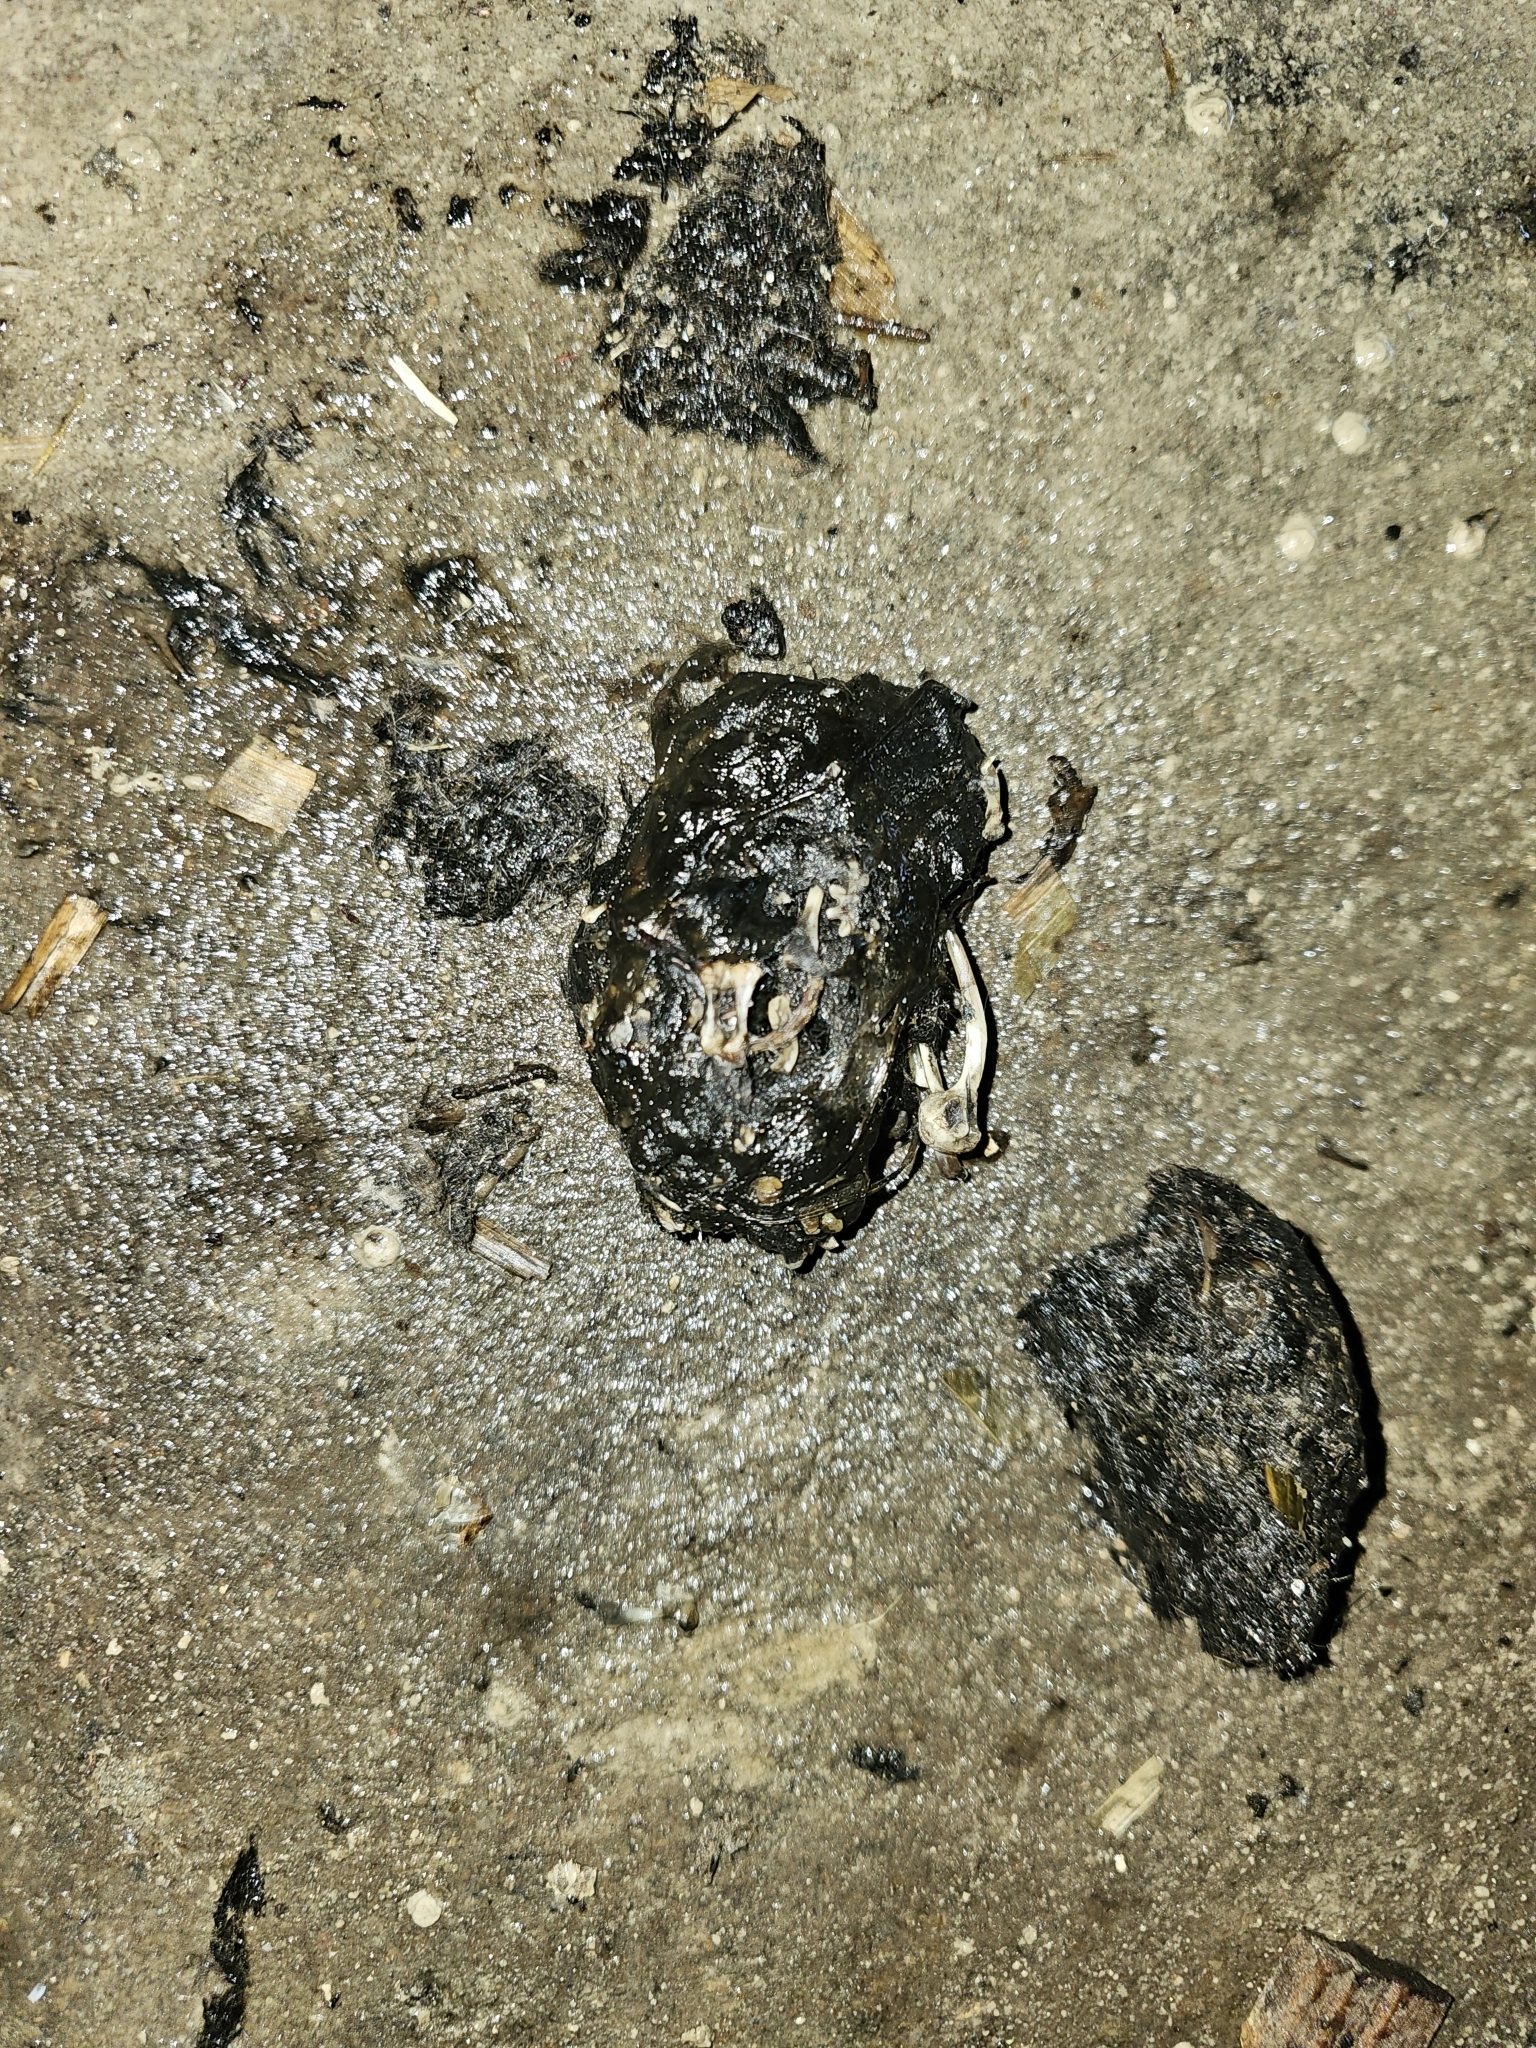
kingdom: Animalia
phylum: Chordata
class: Aves
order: Strigiformes
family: Tytonidae
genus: Tyto
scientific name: Tyto alba
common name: Barn owl
